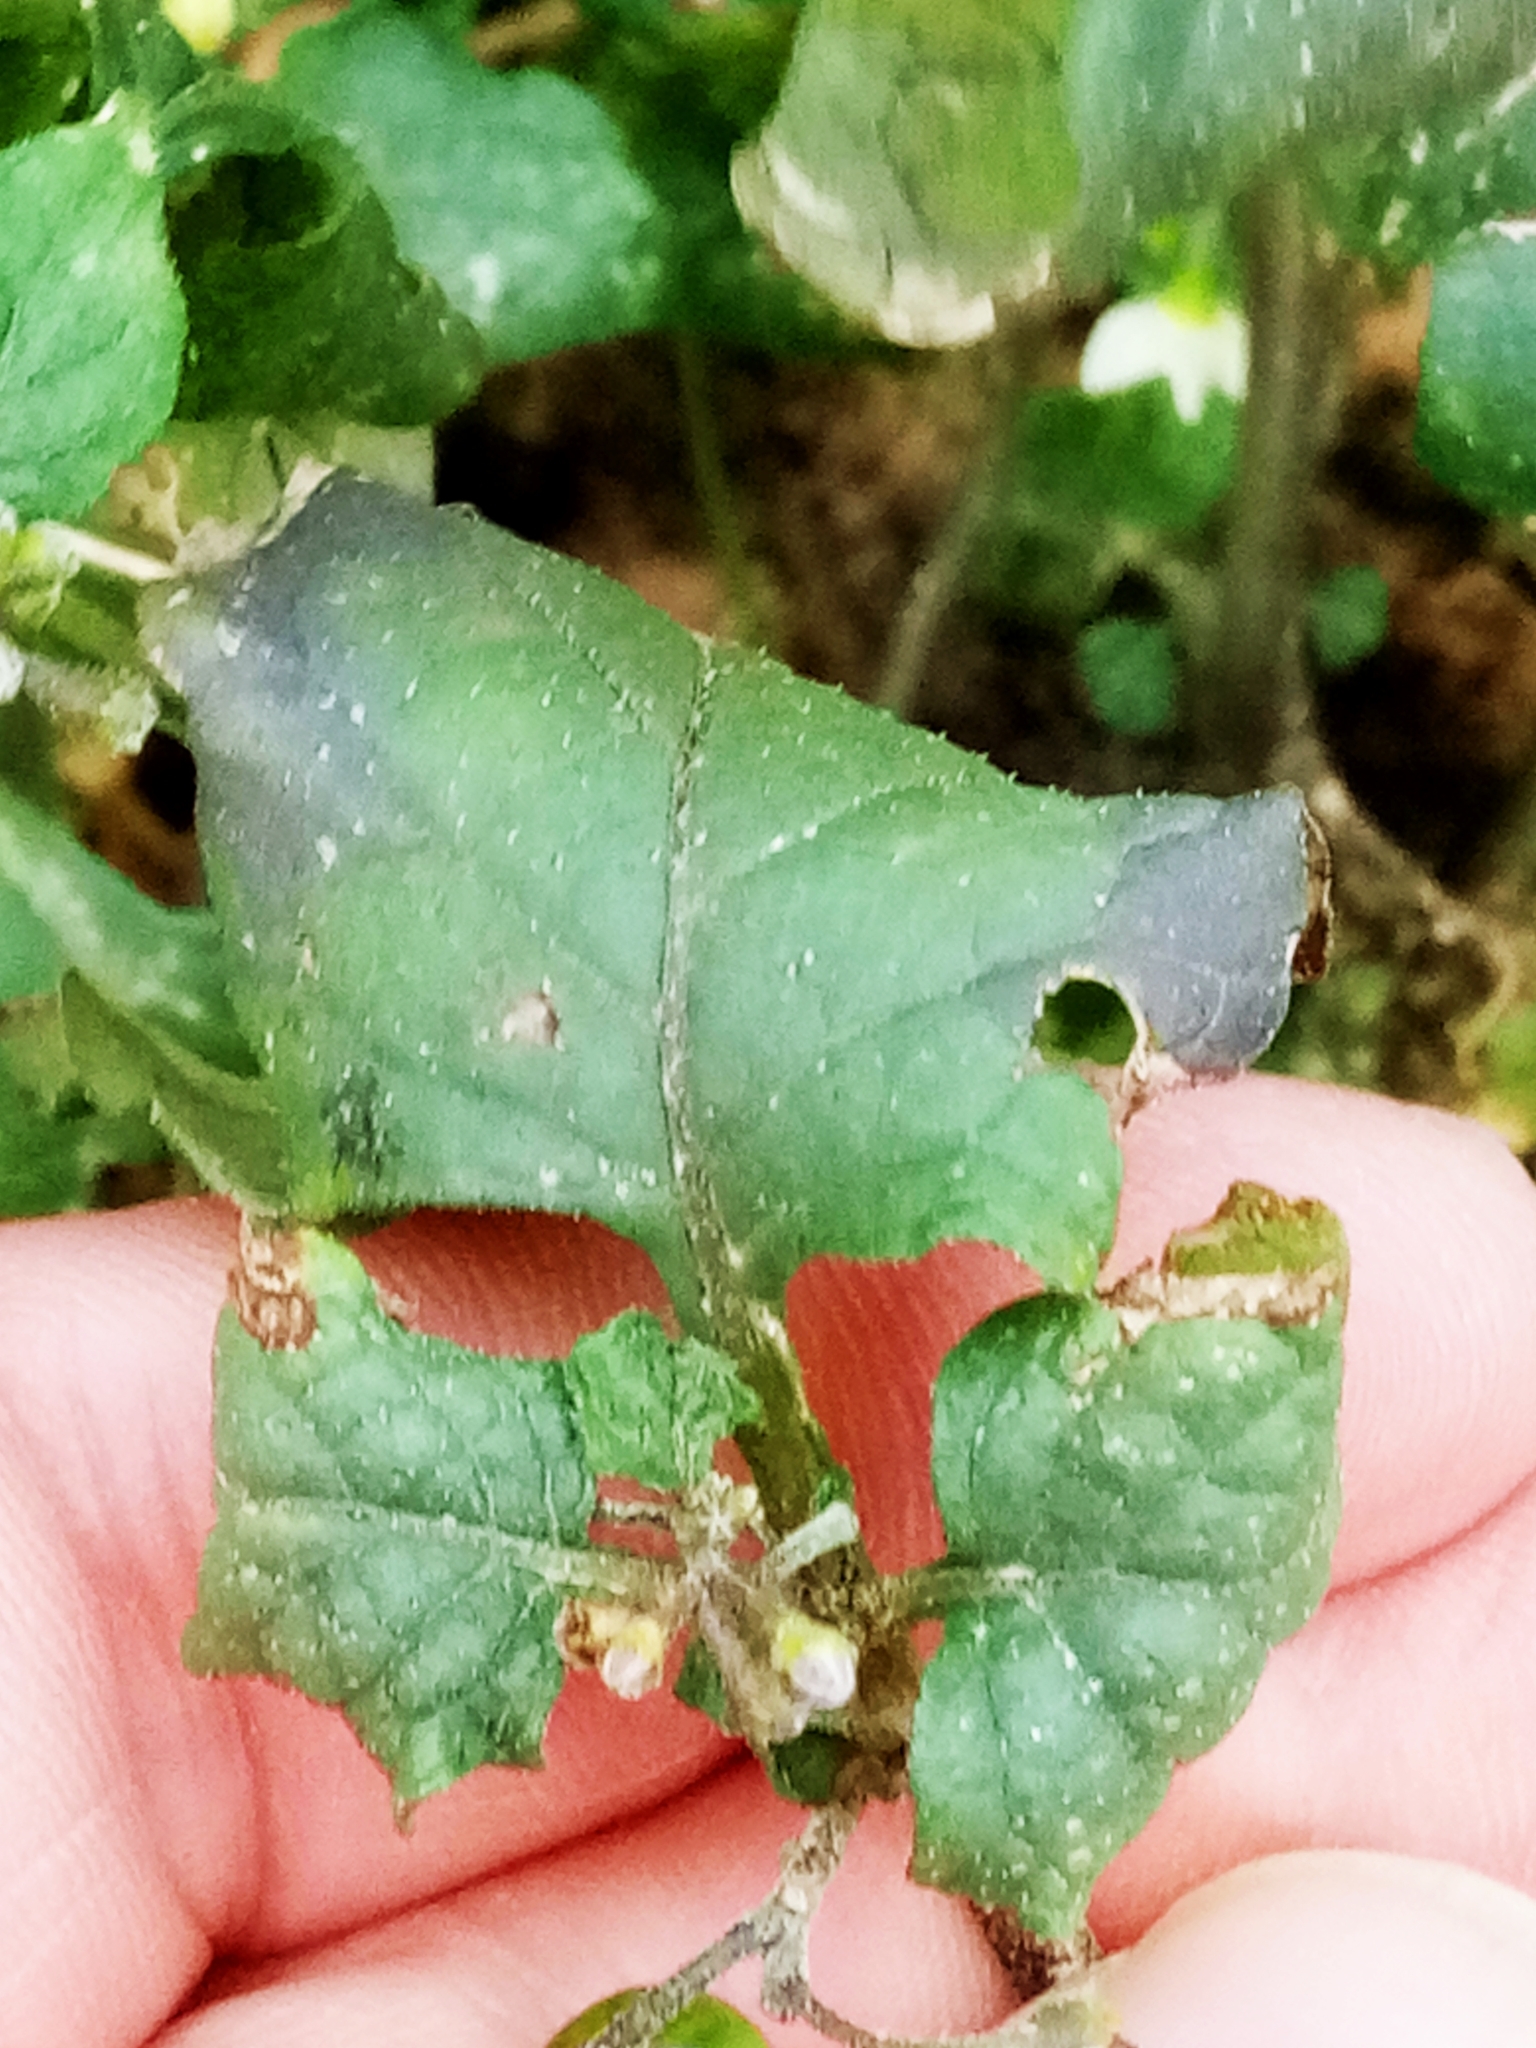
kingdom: Plantae
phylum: Tracheophyta
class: Magnoliopsida
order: Solanales
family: Solanaceae
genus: Solanum
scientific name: Solanum nigrum
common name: Black nightshade
